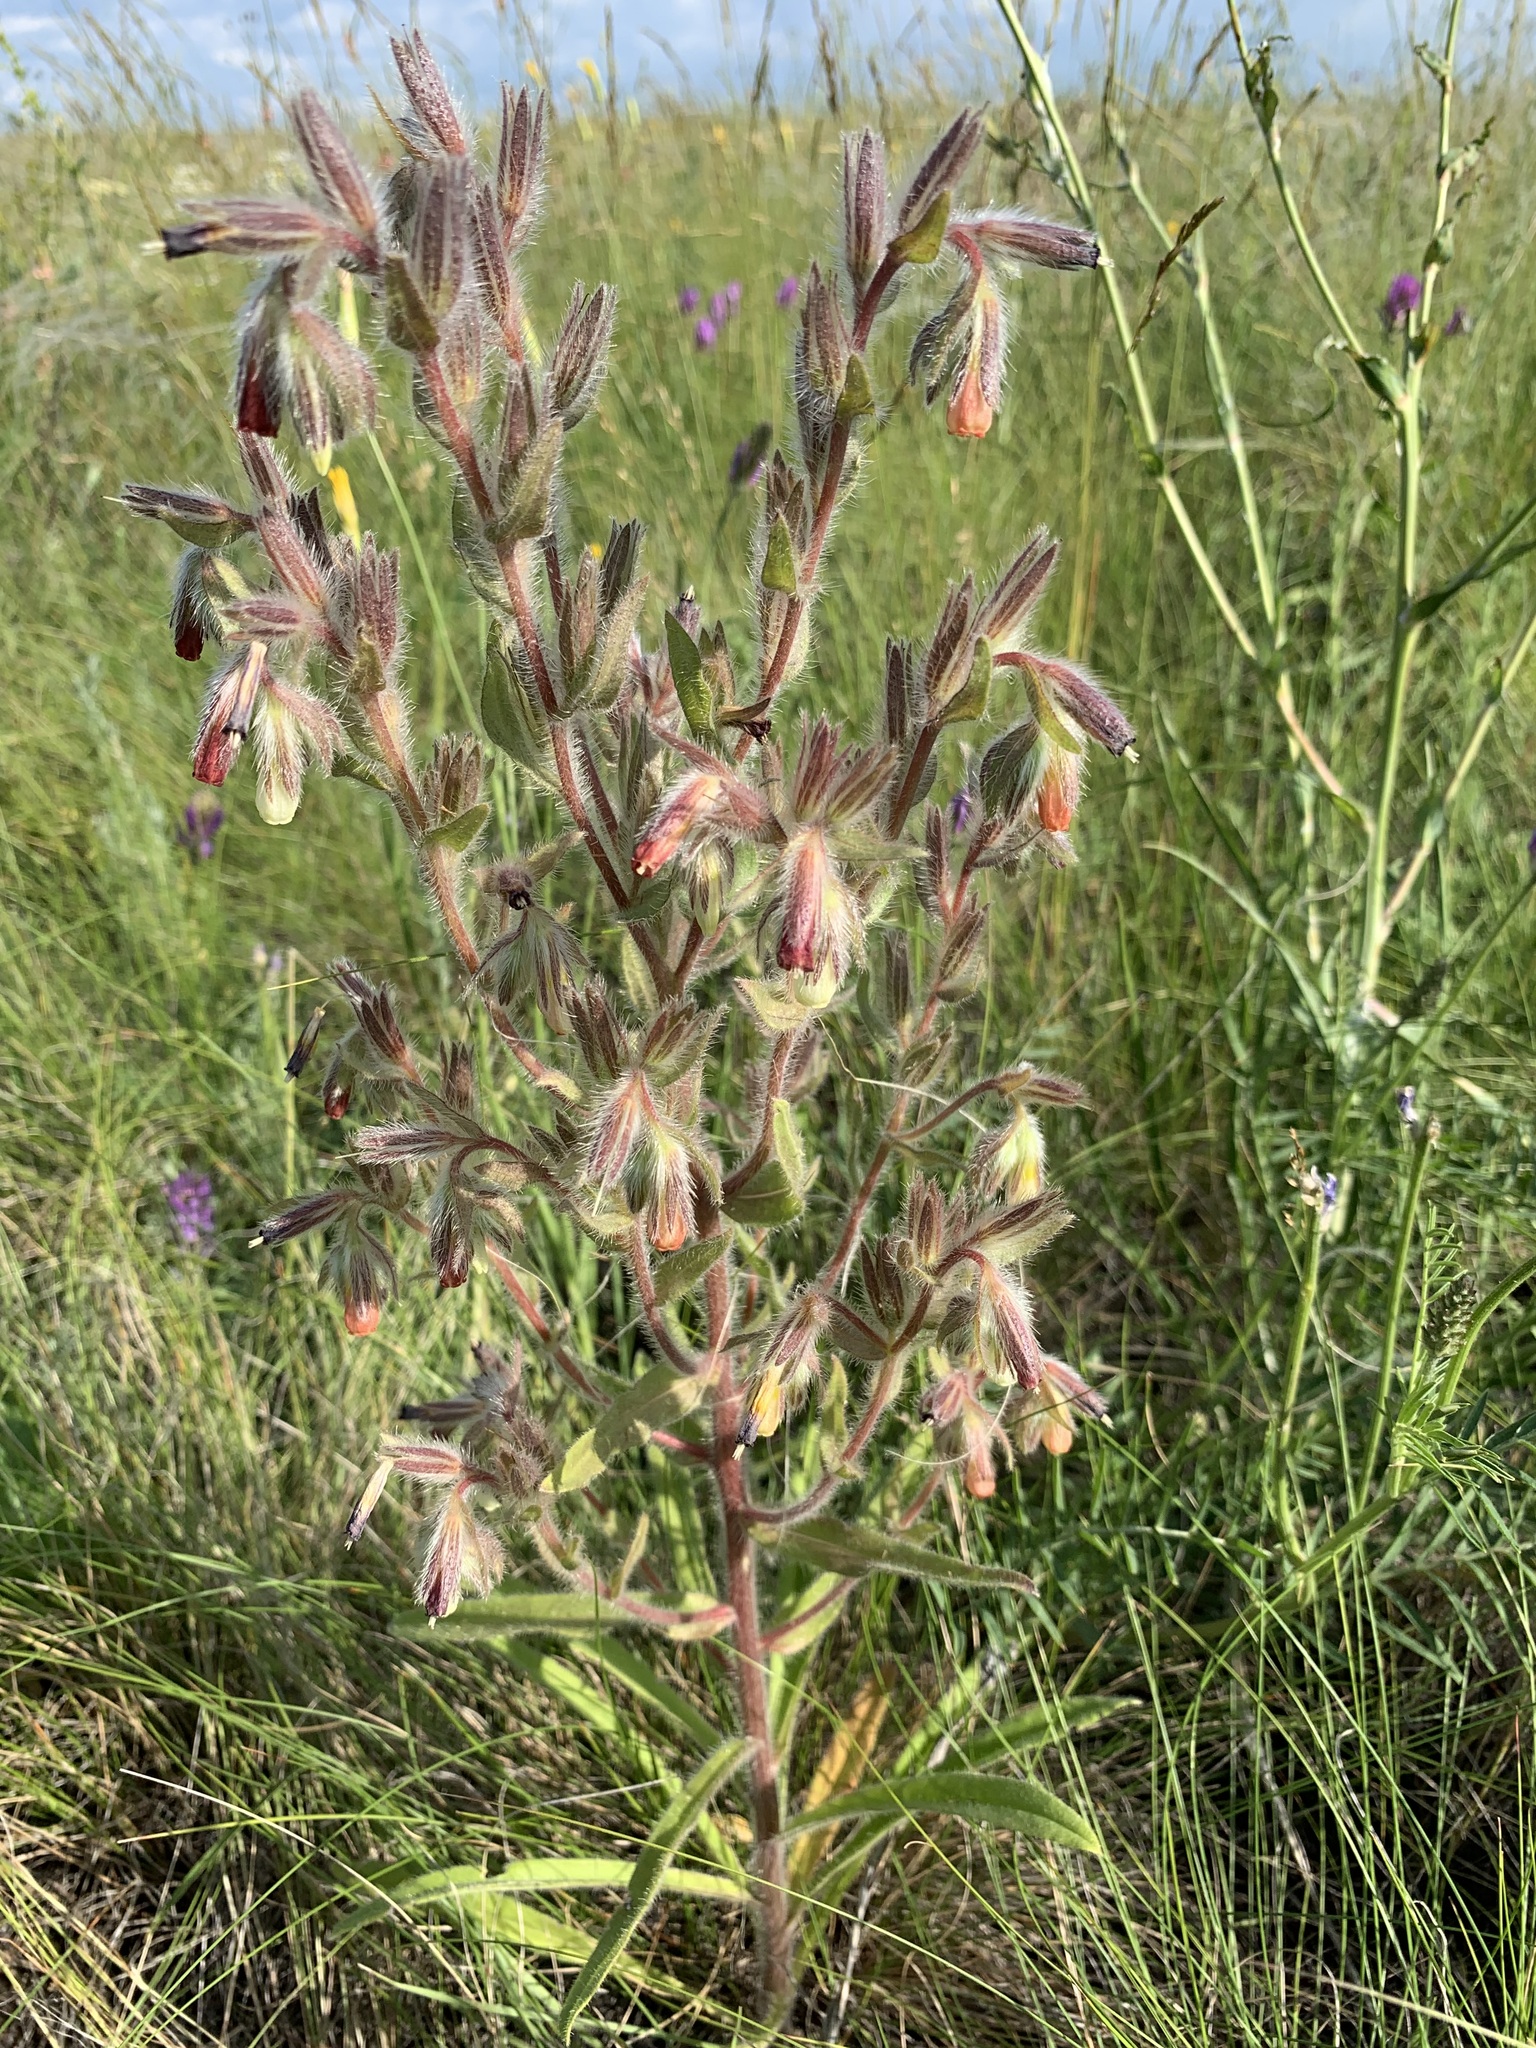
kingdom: Plantae
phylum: Tracheophyta
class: Magnoliopsida
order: Boraginales
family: Boraginaceae
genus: Onosma
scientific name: Onosma polychroma
